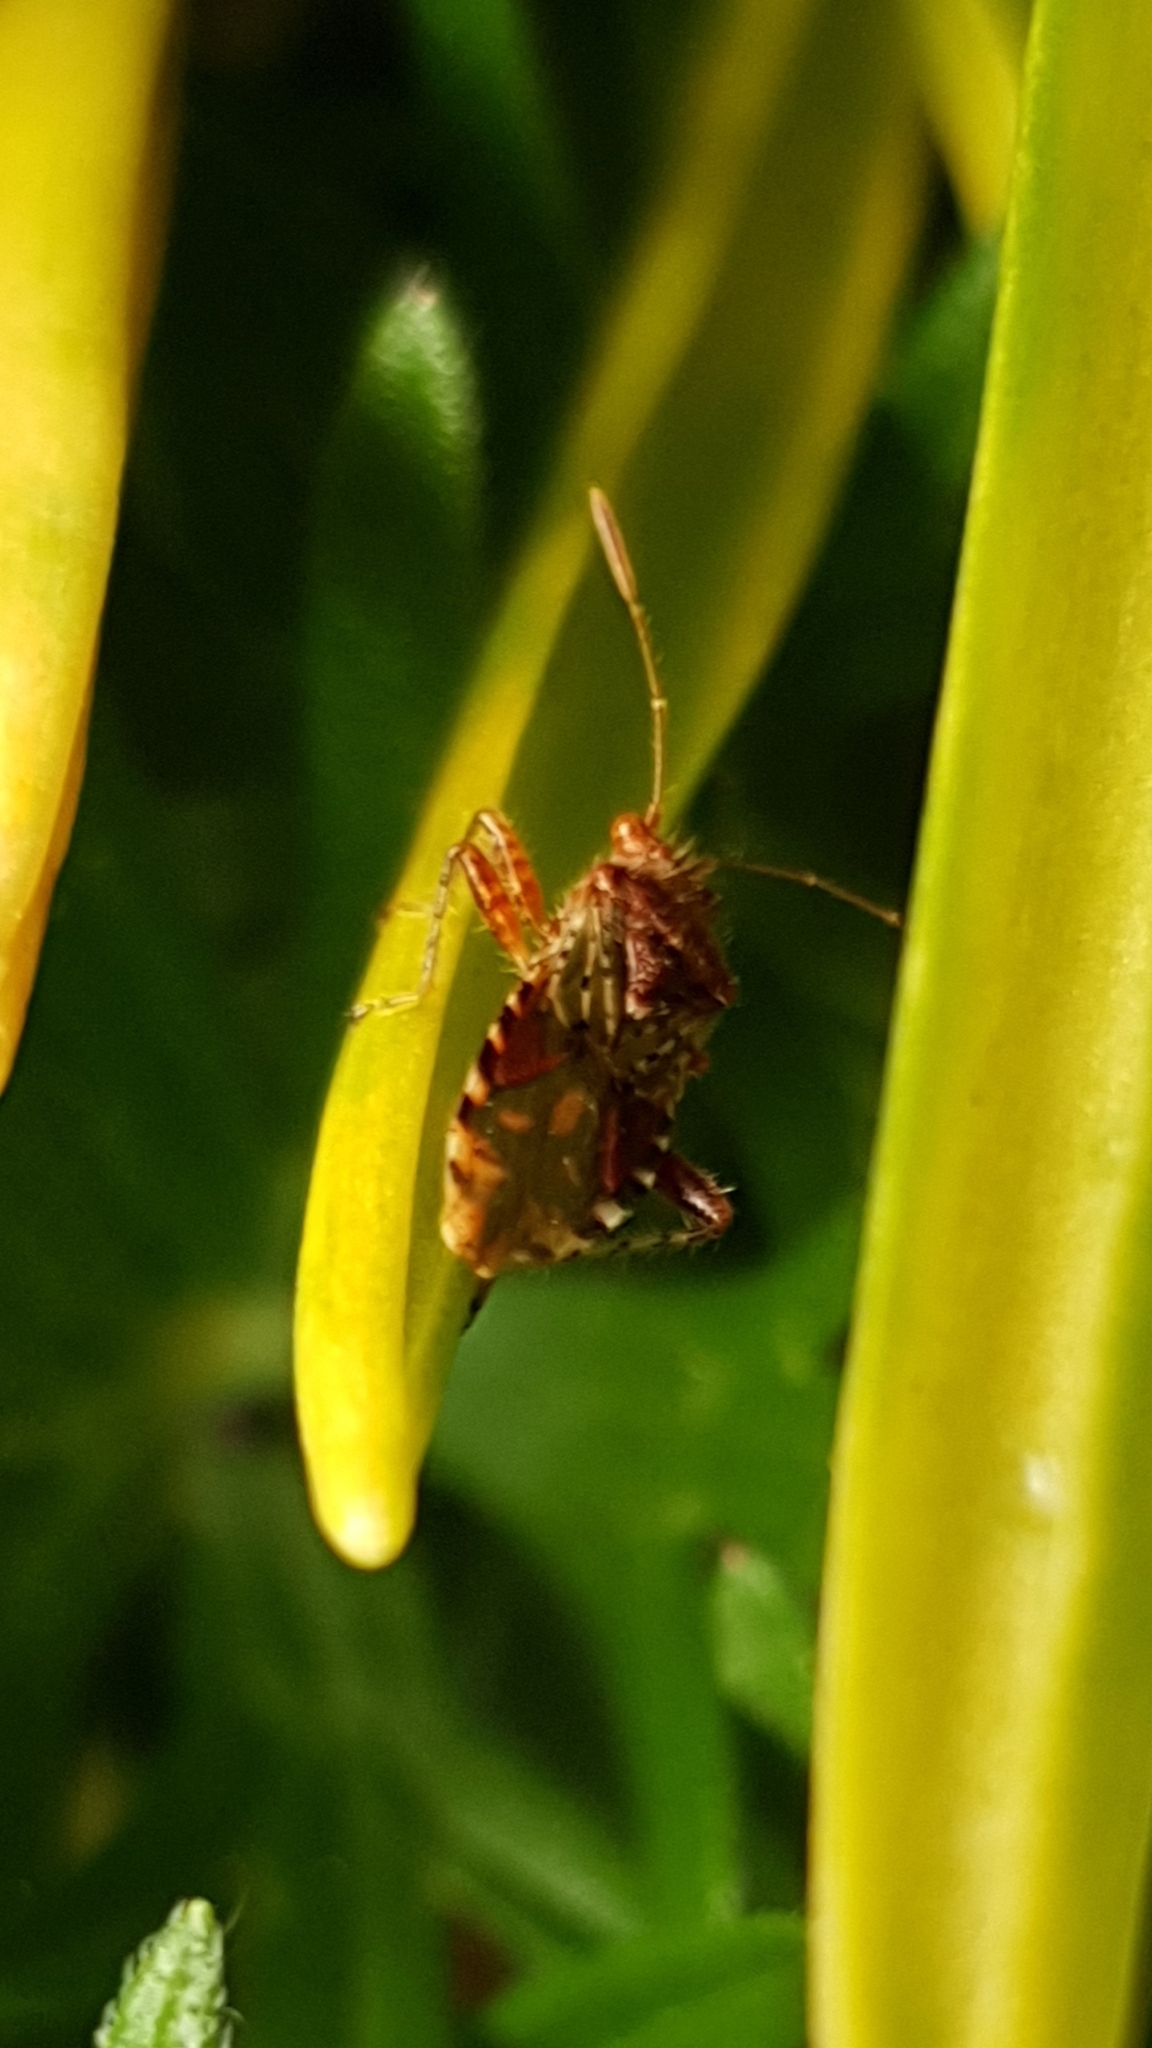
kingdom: Animalia
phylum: Arthropoda
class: Insecta
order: Hemiptera
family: Rhopalidae
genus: Rhopalus
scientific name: Rhopalus subrufus
